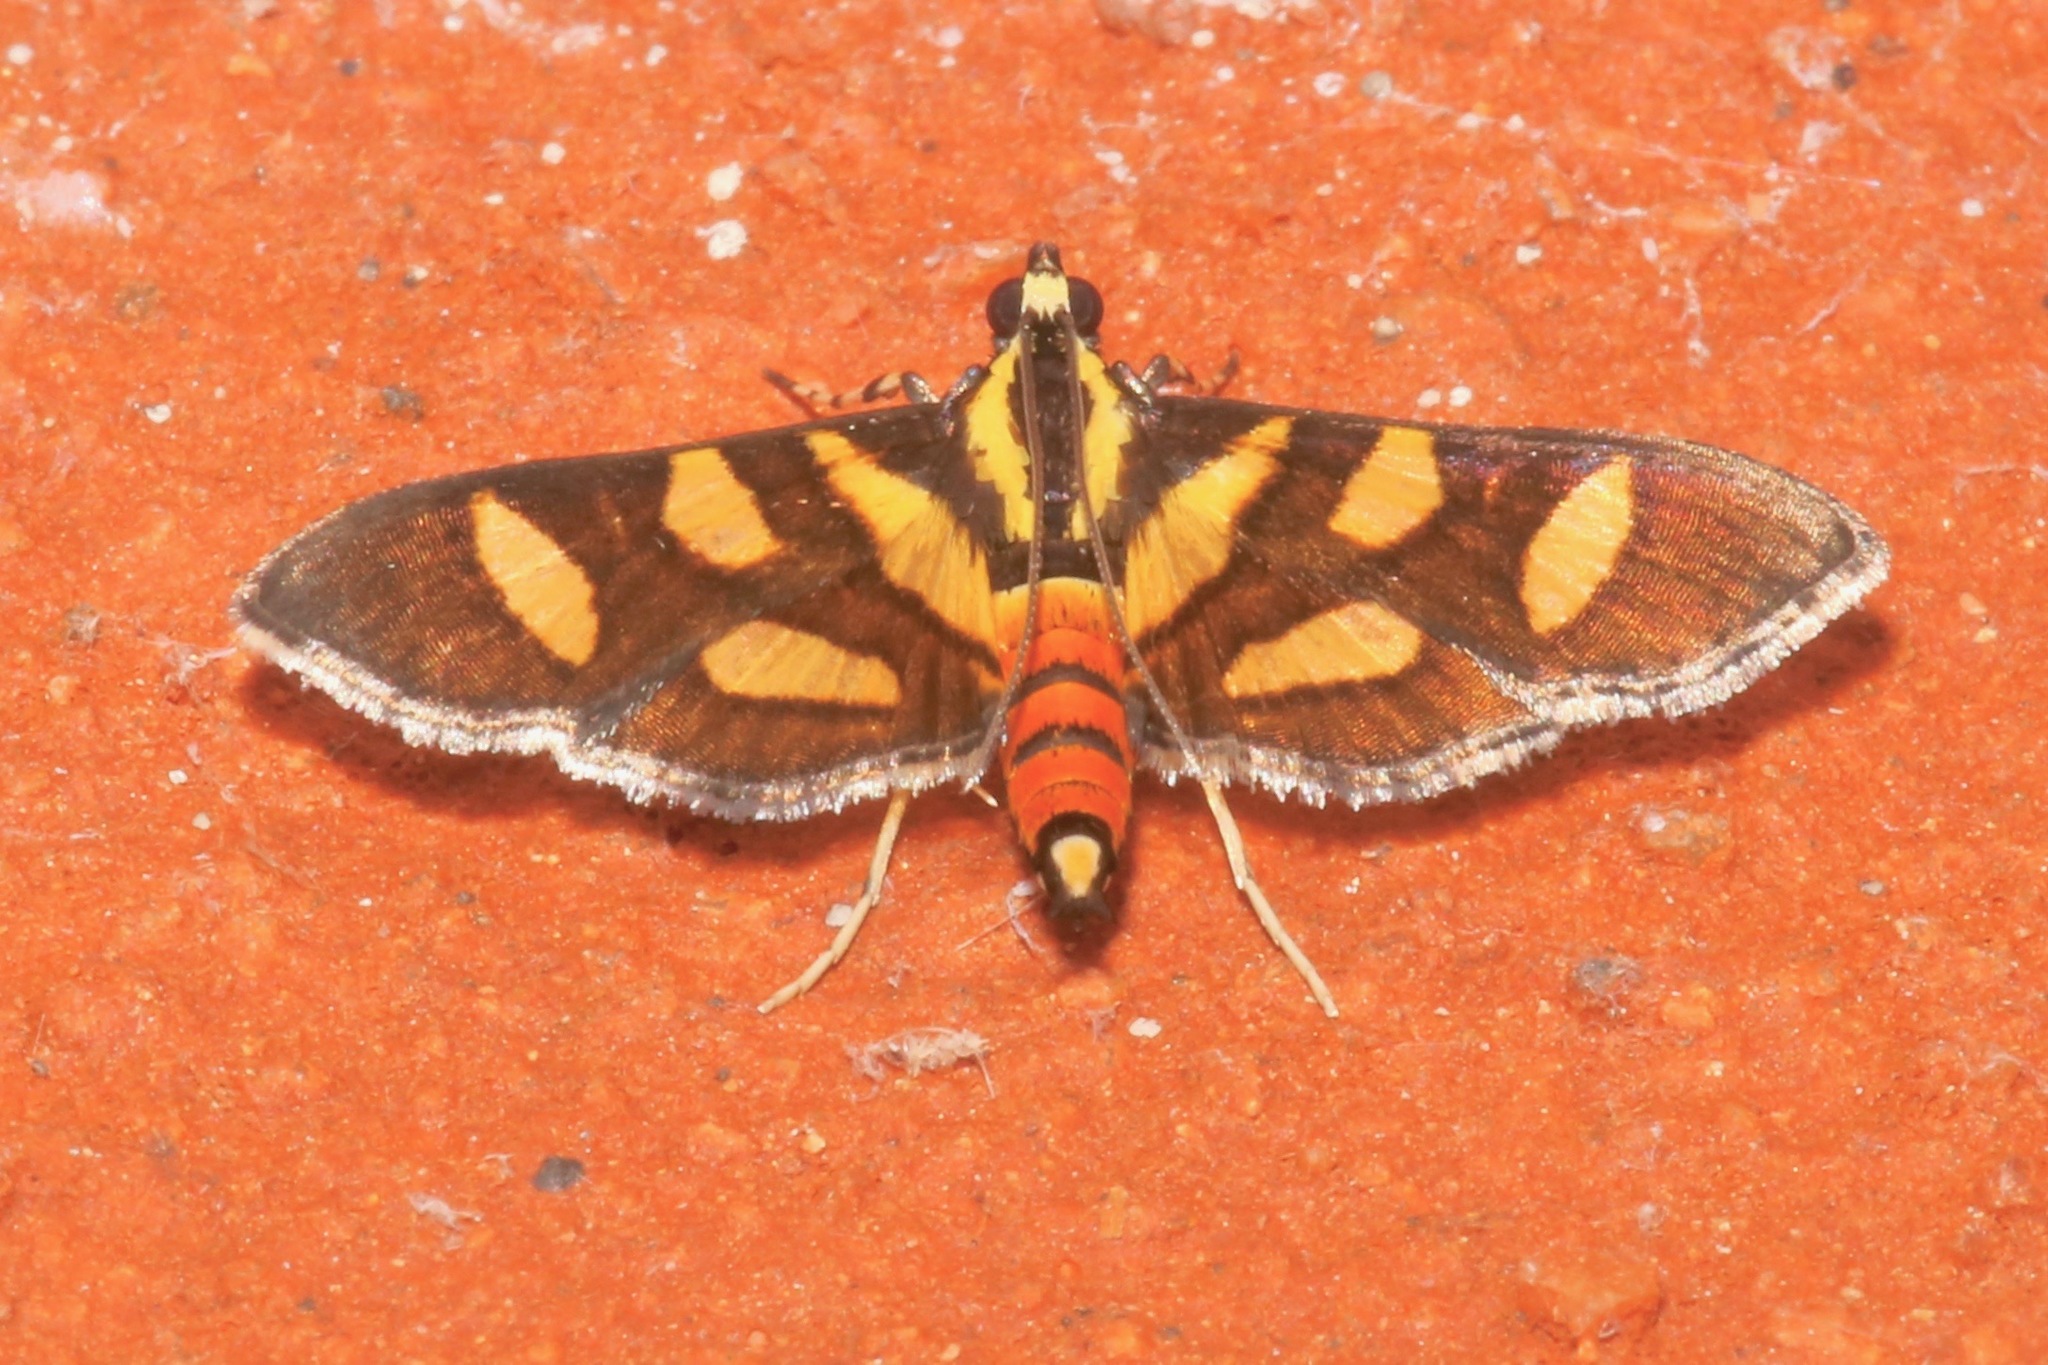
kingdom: Animalia
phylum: Arthropoda
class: Insecta
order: Lepidoptera
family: Crambidae
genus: Syngamia
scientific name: Syngamia florella
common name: Orange-spotted flower moth
